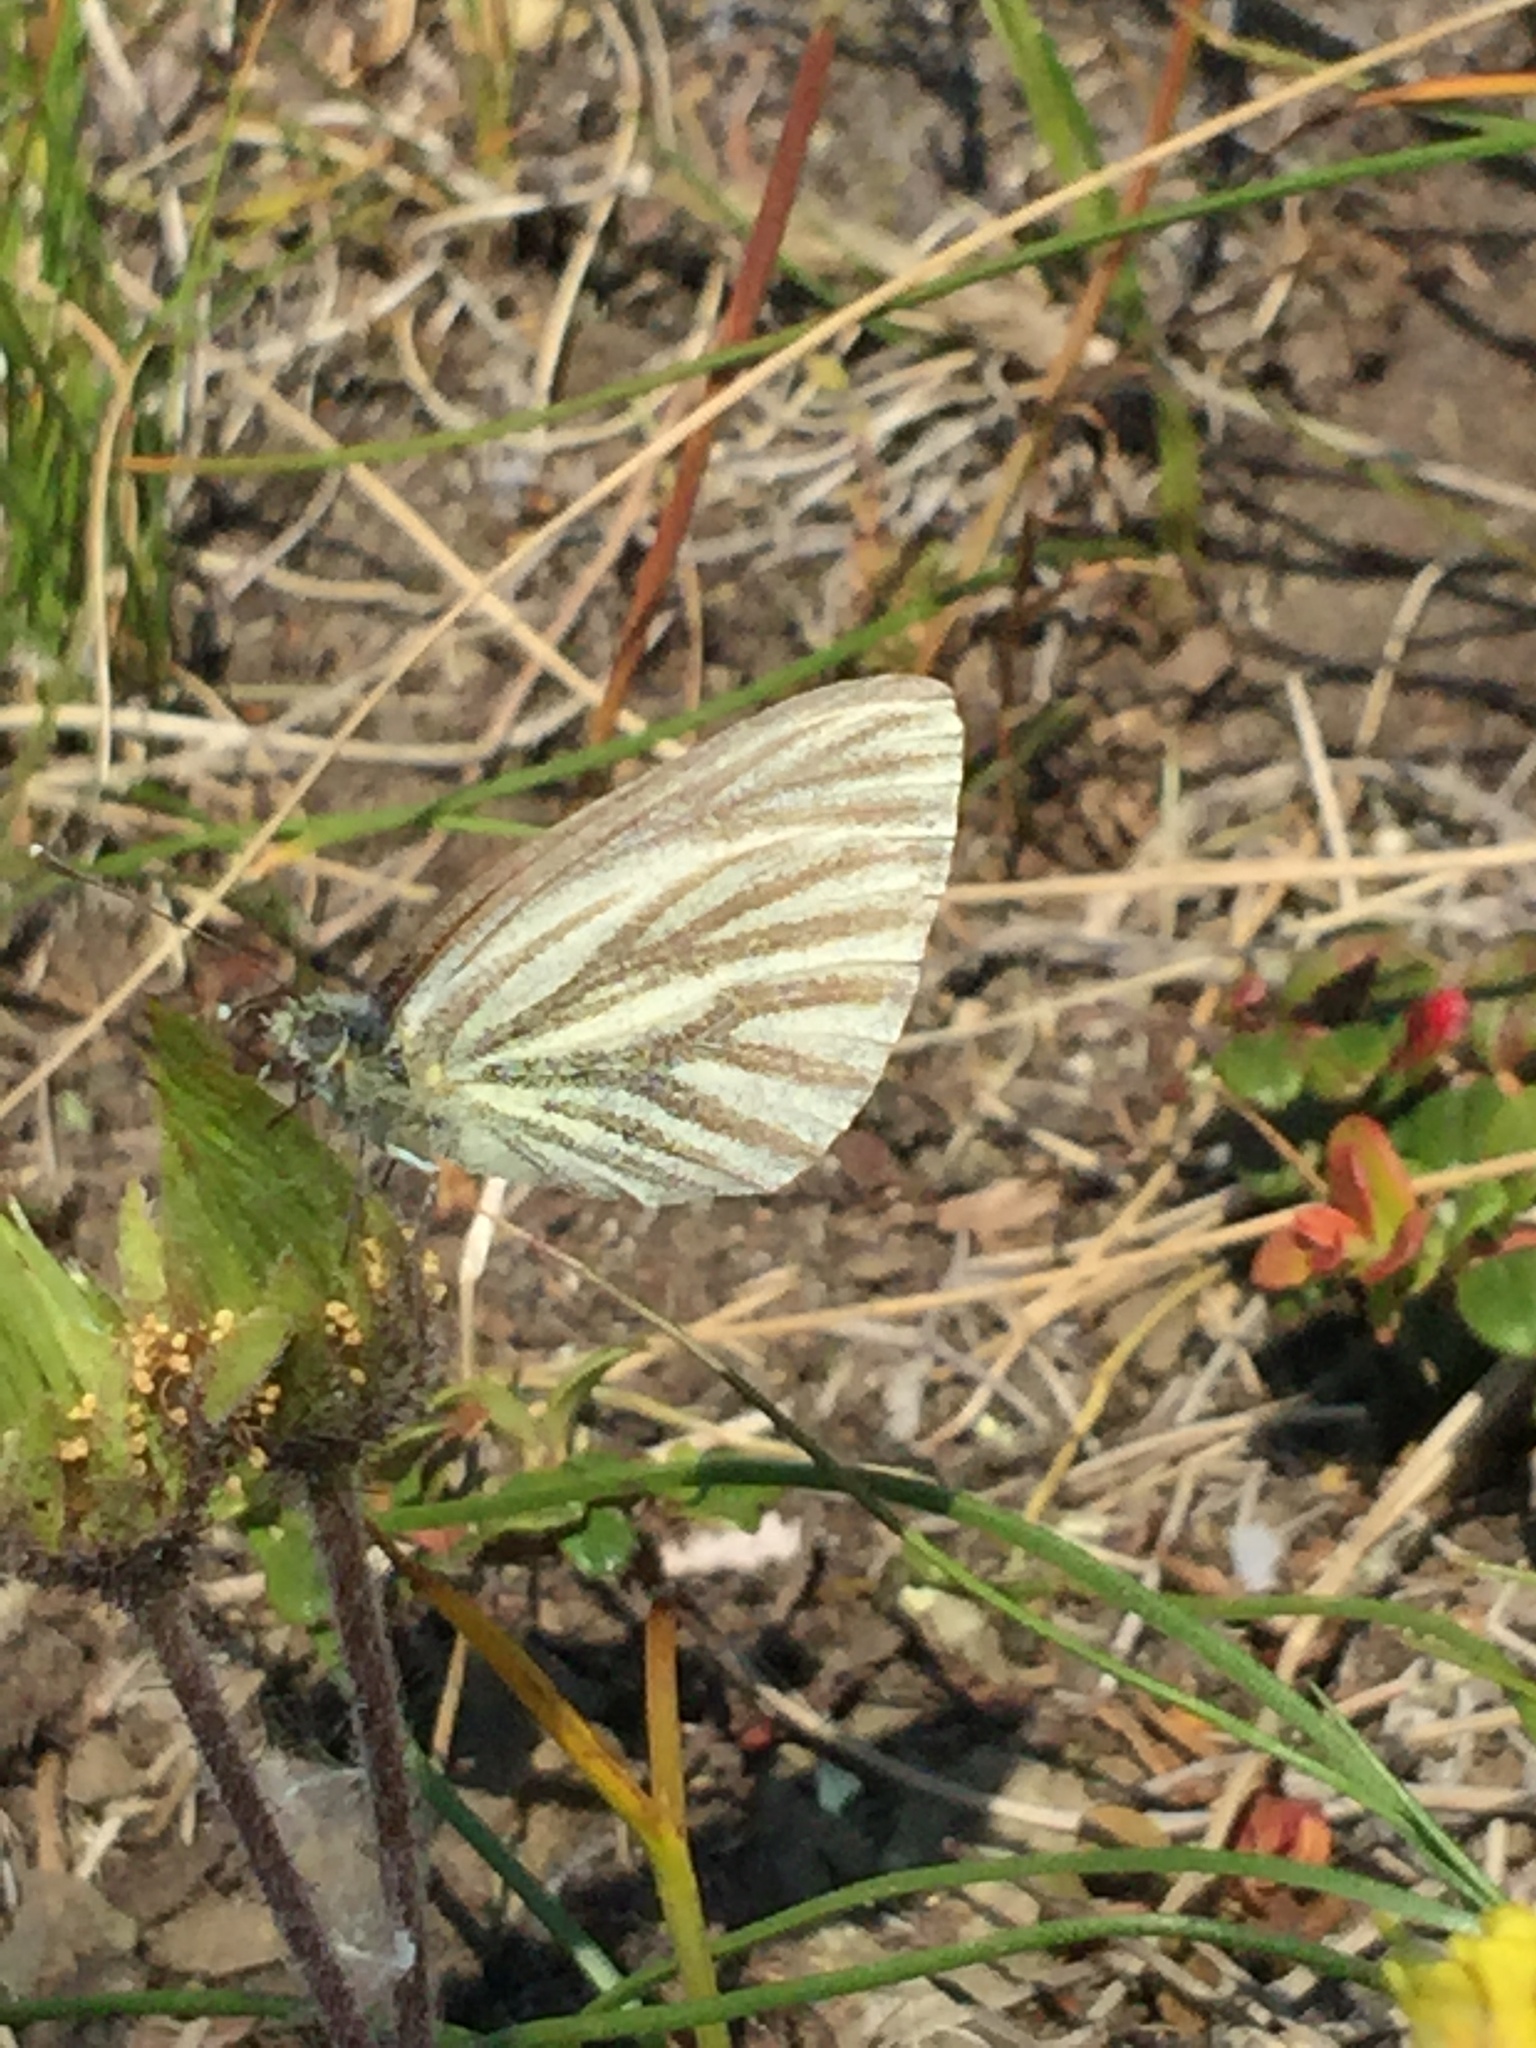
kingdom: Animalia
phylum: Arthropoda
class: Insecta
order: Lepidoptera
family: Pieridae
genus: Pieris
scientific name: Pieris marginalis
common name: Margined white
